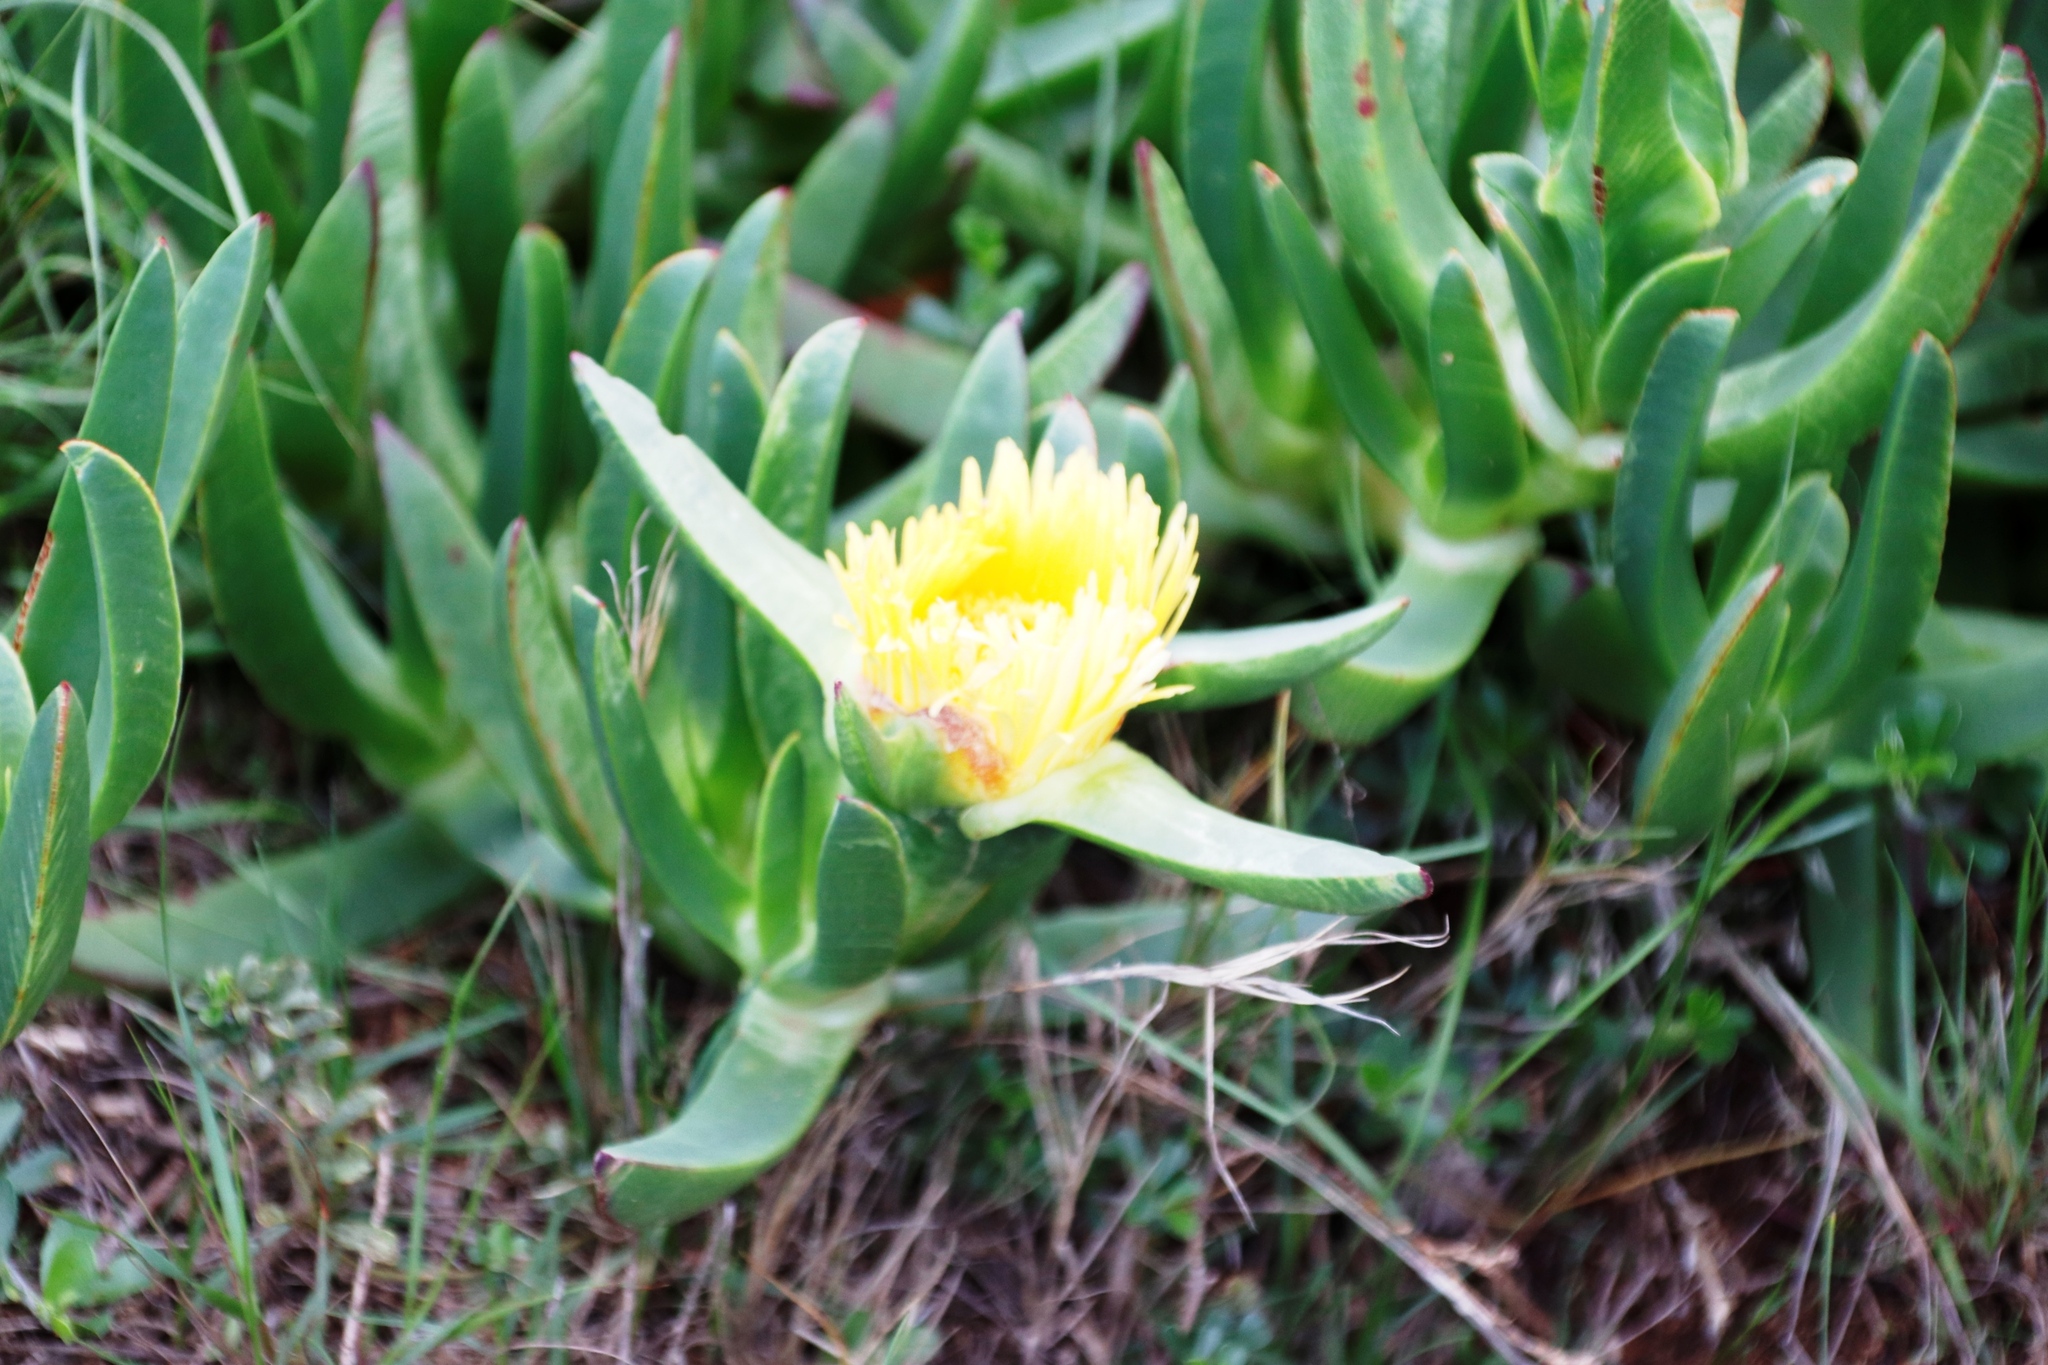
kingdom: Plantae
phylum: Tracheophyta
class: Magnoliopsida
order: Caryophyllales
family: Aizoaceae
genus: Carpobrotus
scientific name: Carpobrotus edulis
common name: Hottentot-fig
